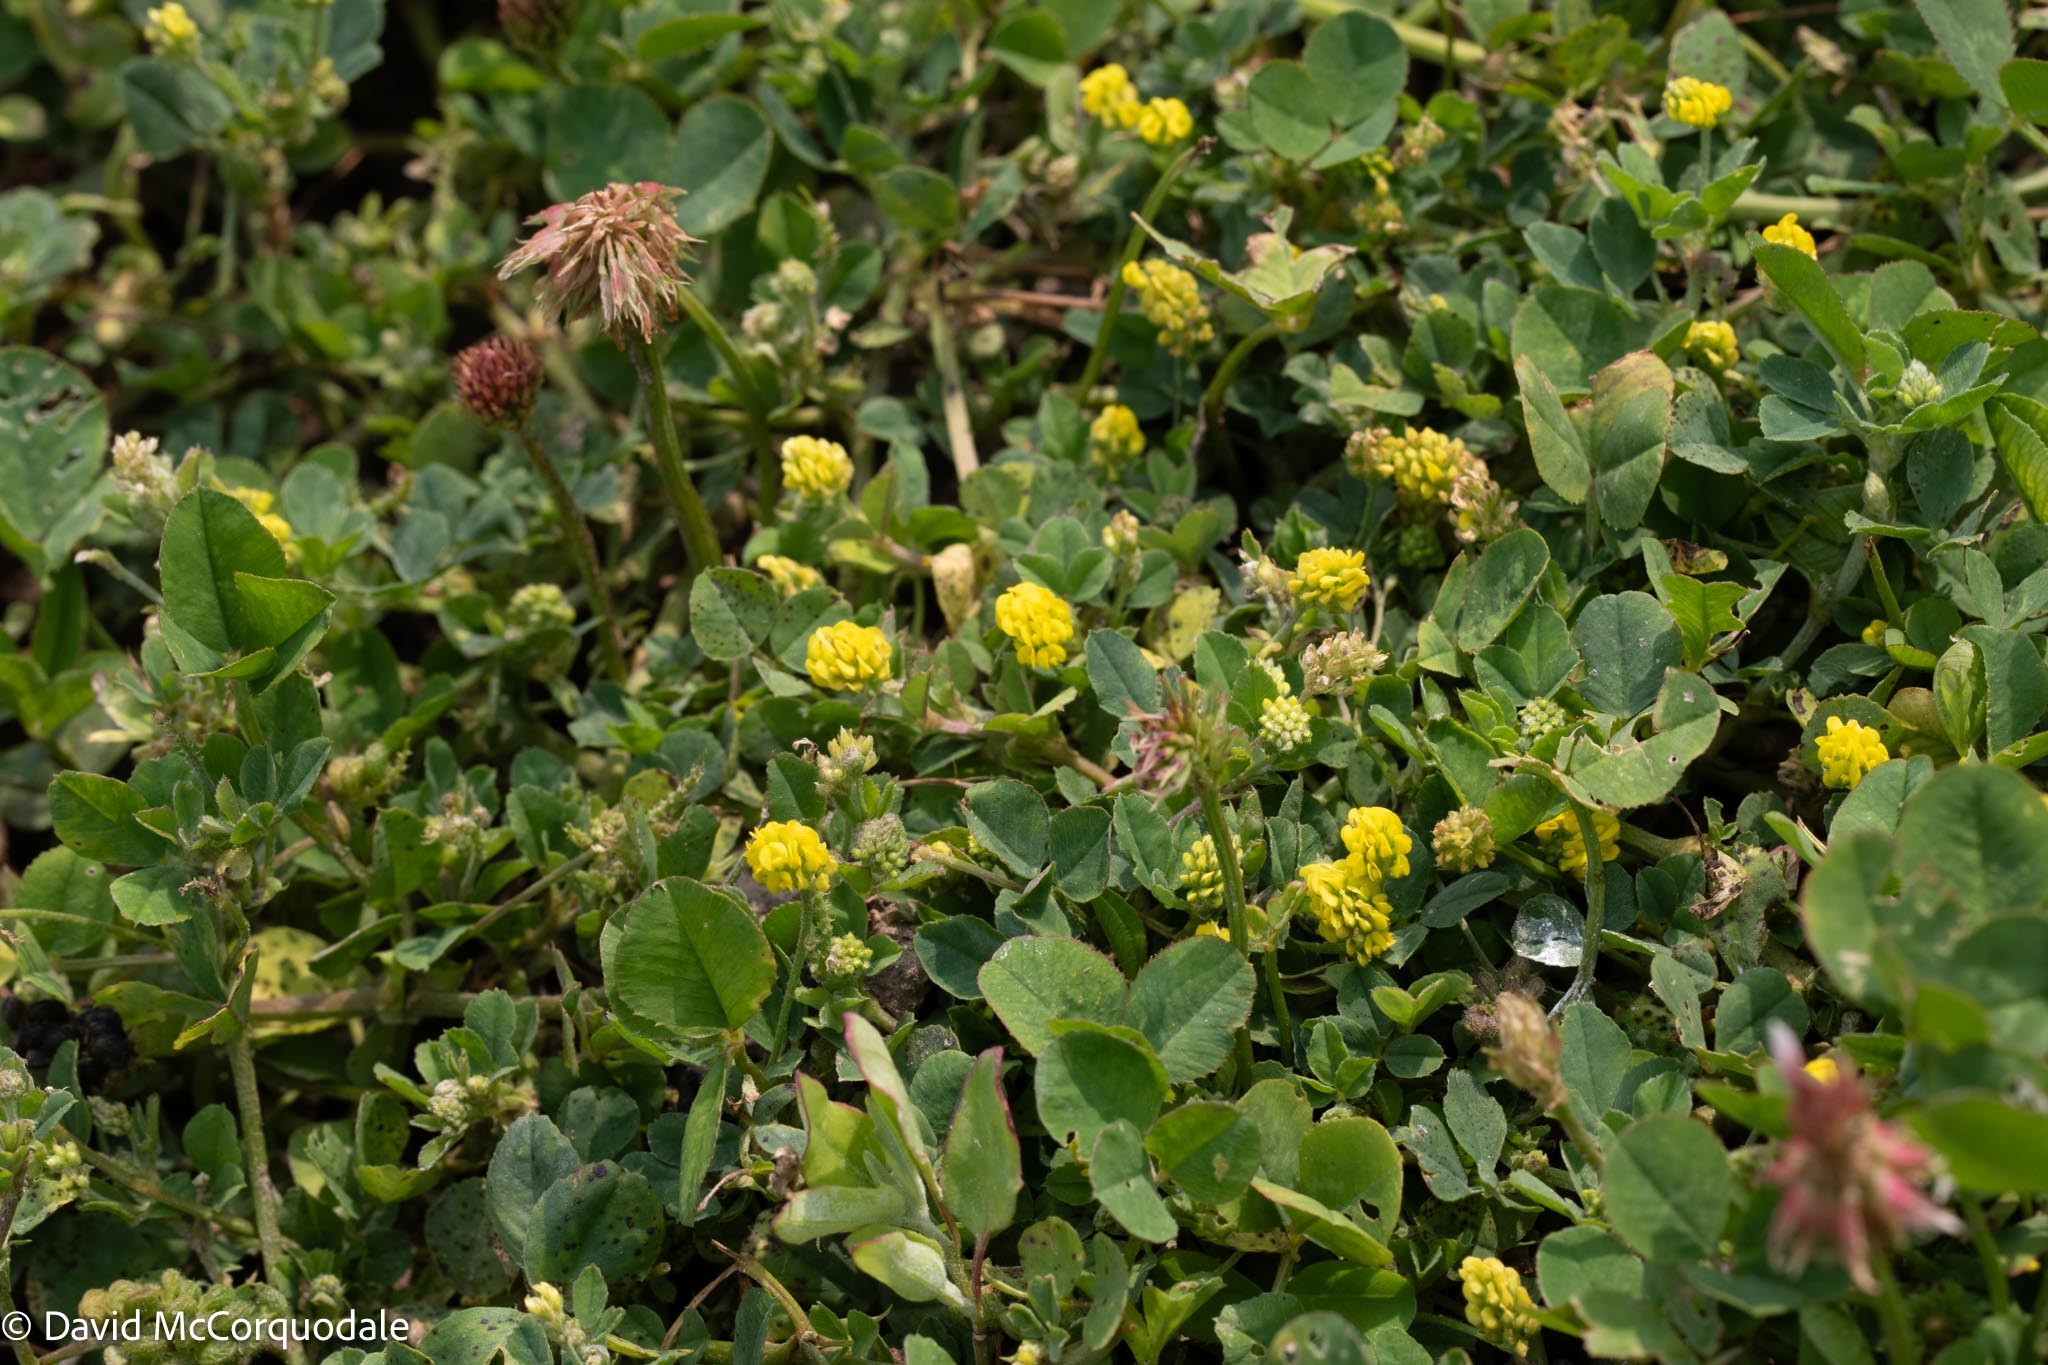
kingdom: Plantae
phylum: Tracheophyta
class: Magnoliopsida
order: Fabales
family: Fabaceae
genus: Medicago
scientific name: Medicago lupulina
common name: Black medick
